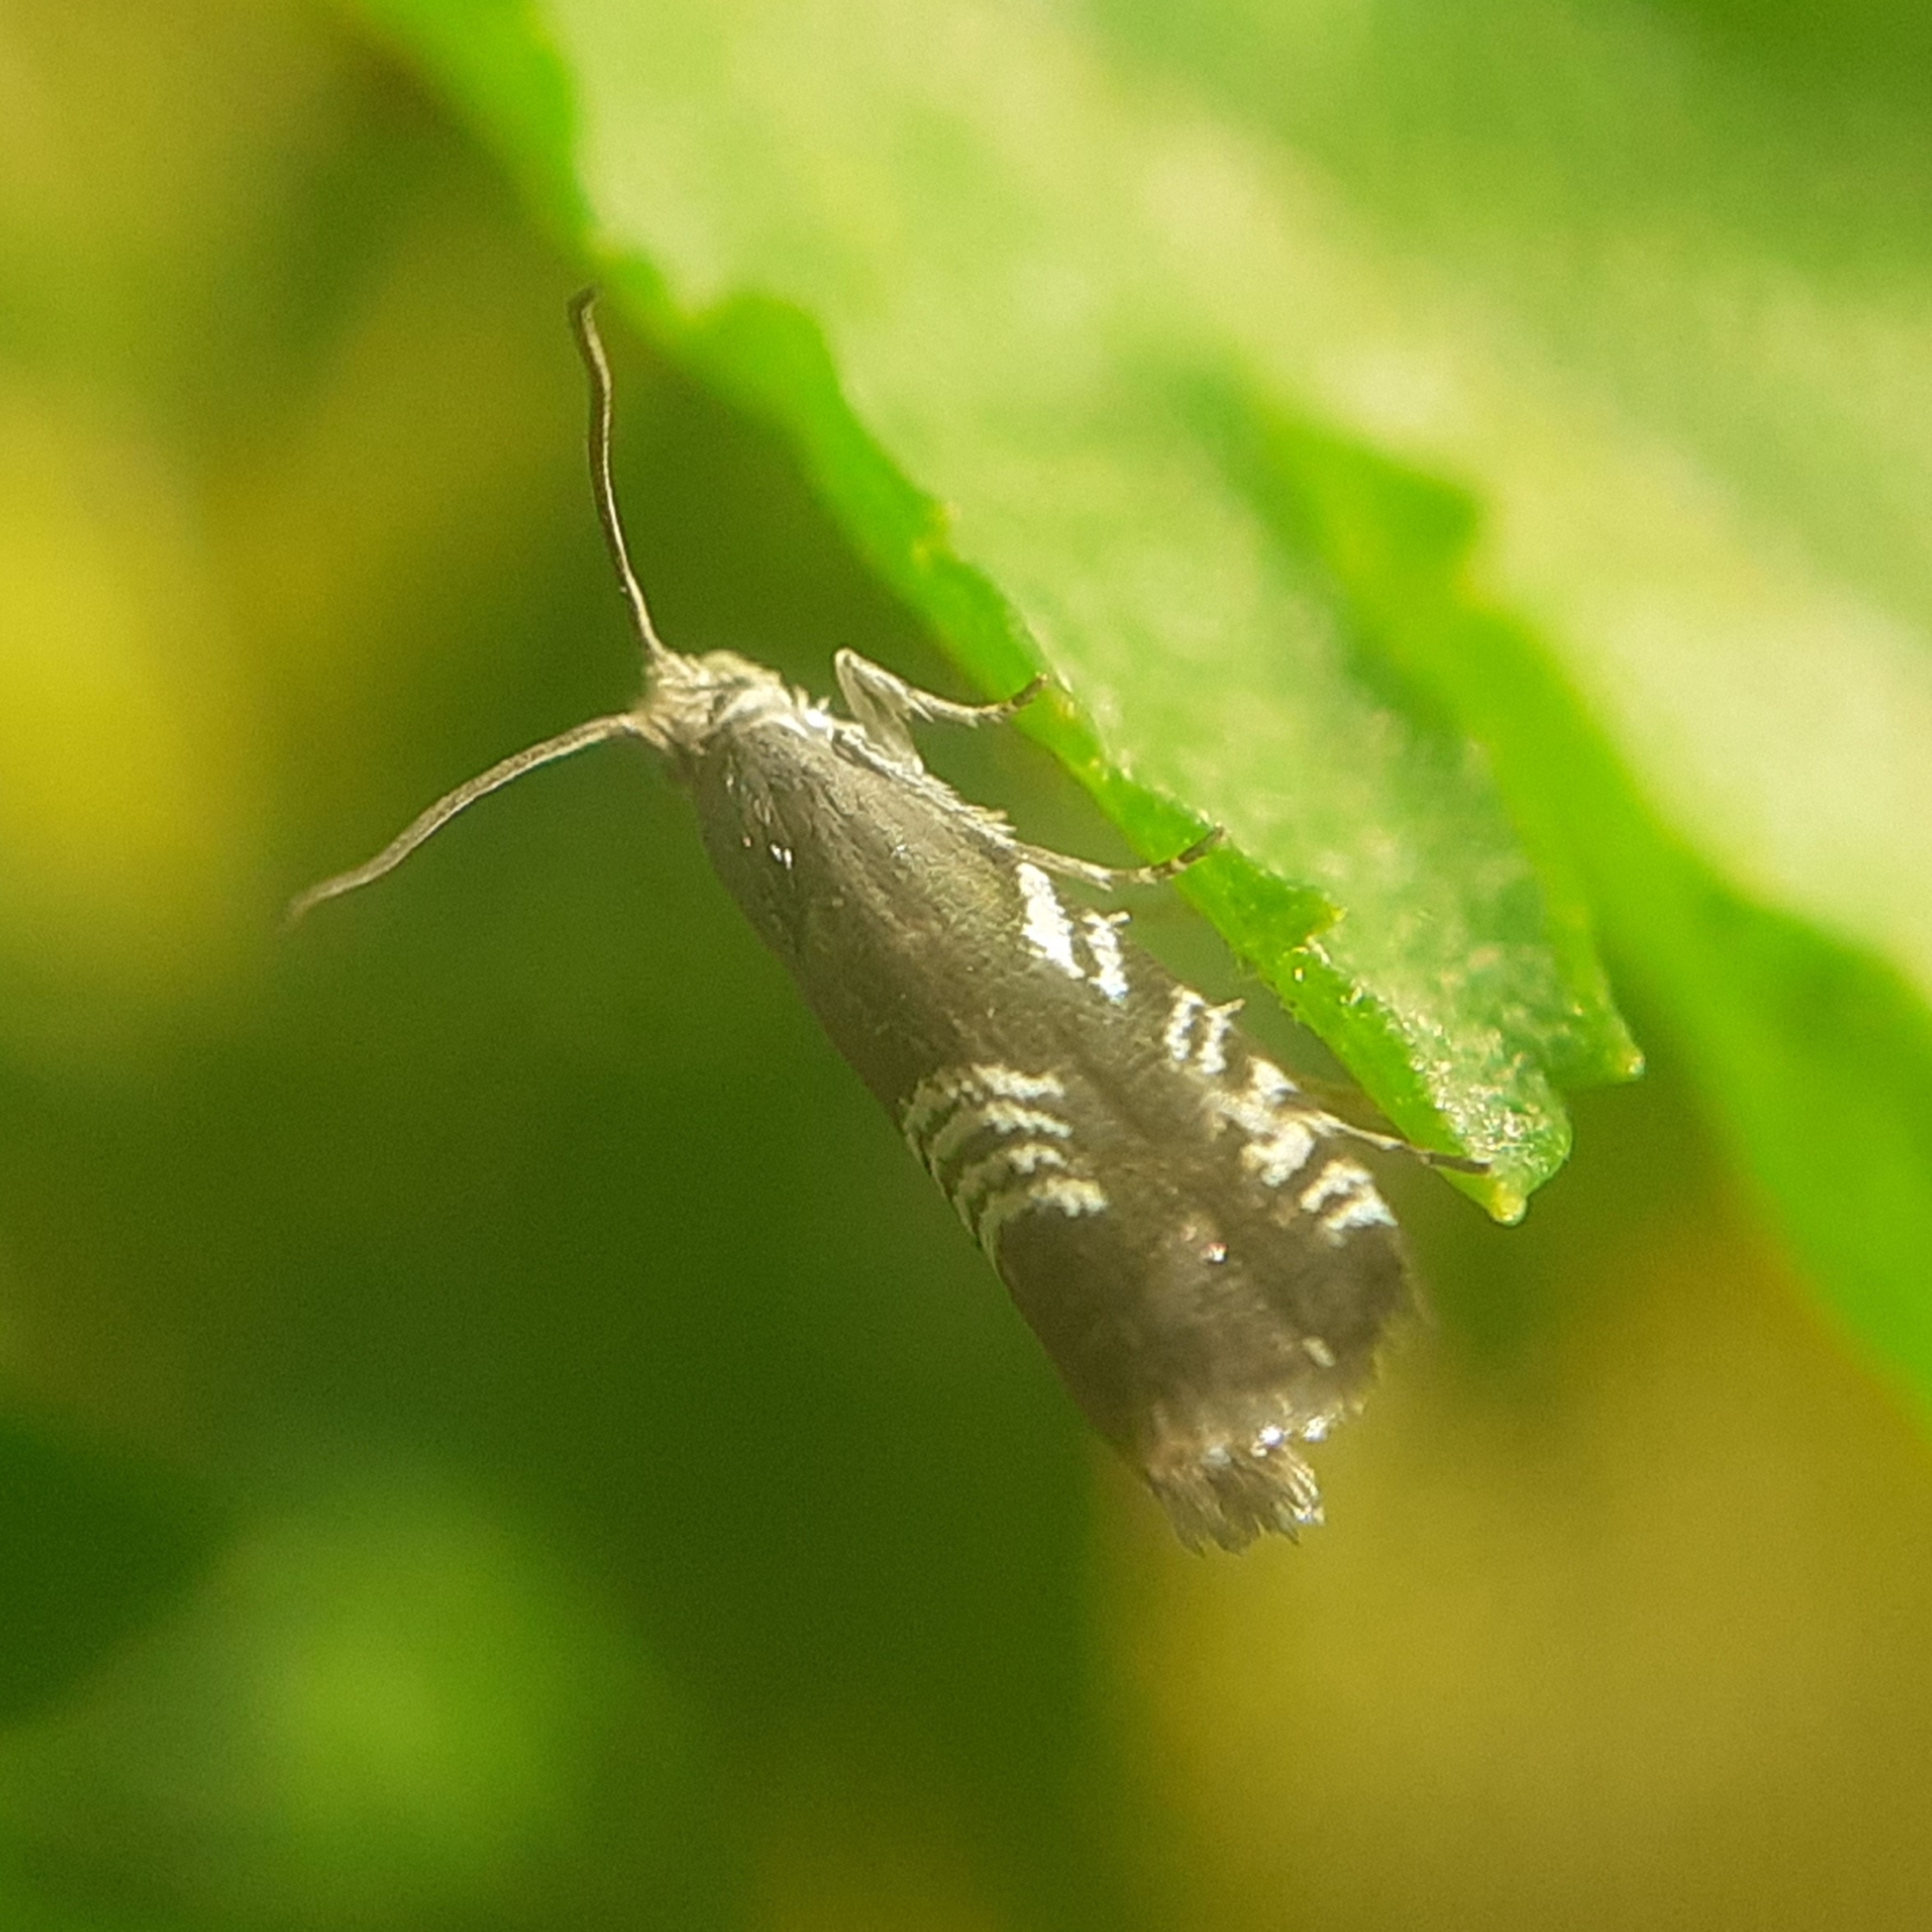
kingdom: Animalia
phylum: Arthropoda
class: Insecta
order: Lepidoptera
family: Tortricidae
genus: Grapholita
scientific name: Grapholita compositella
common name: Triple-stripe piercer
